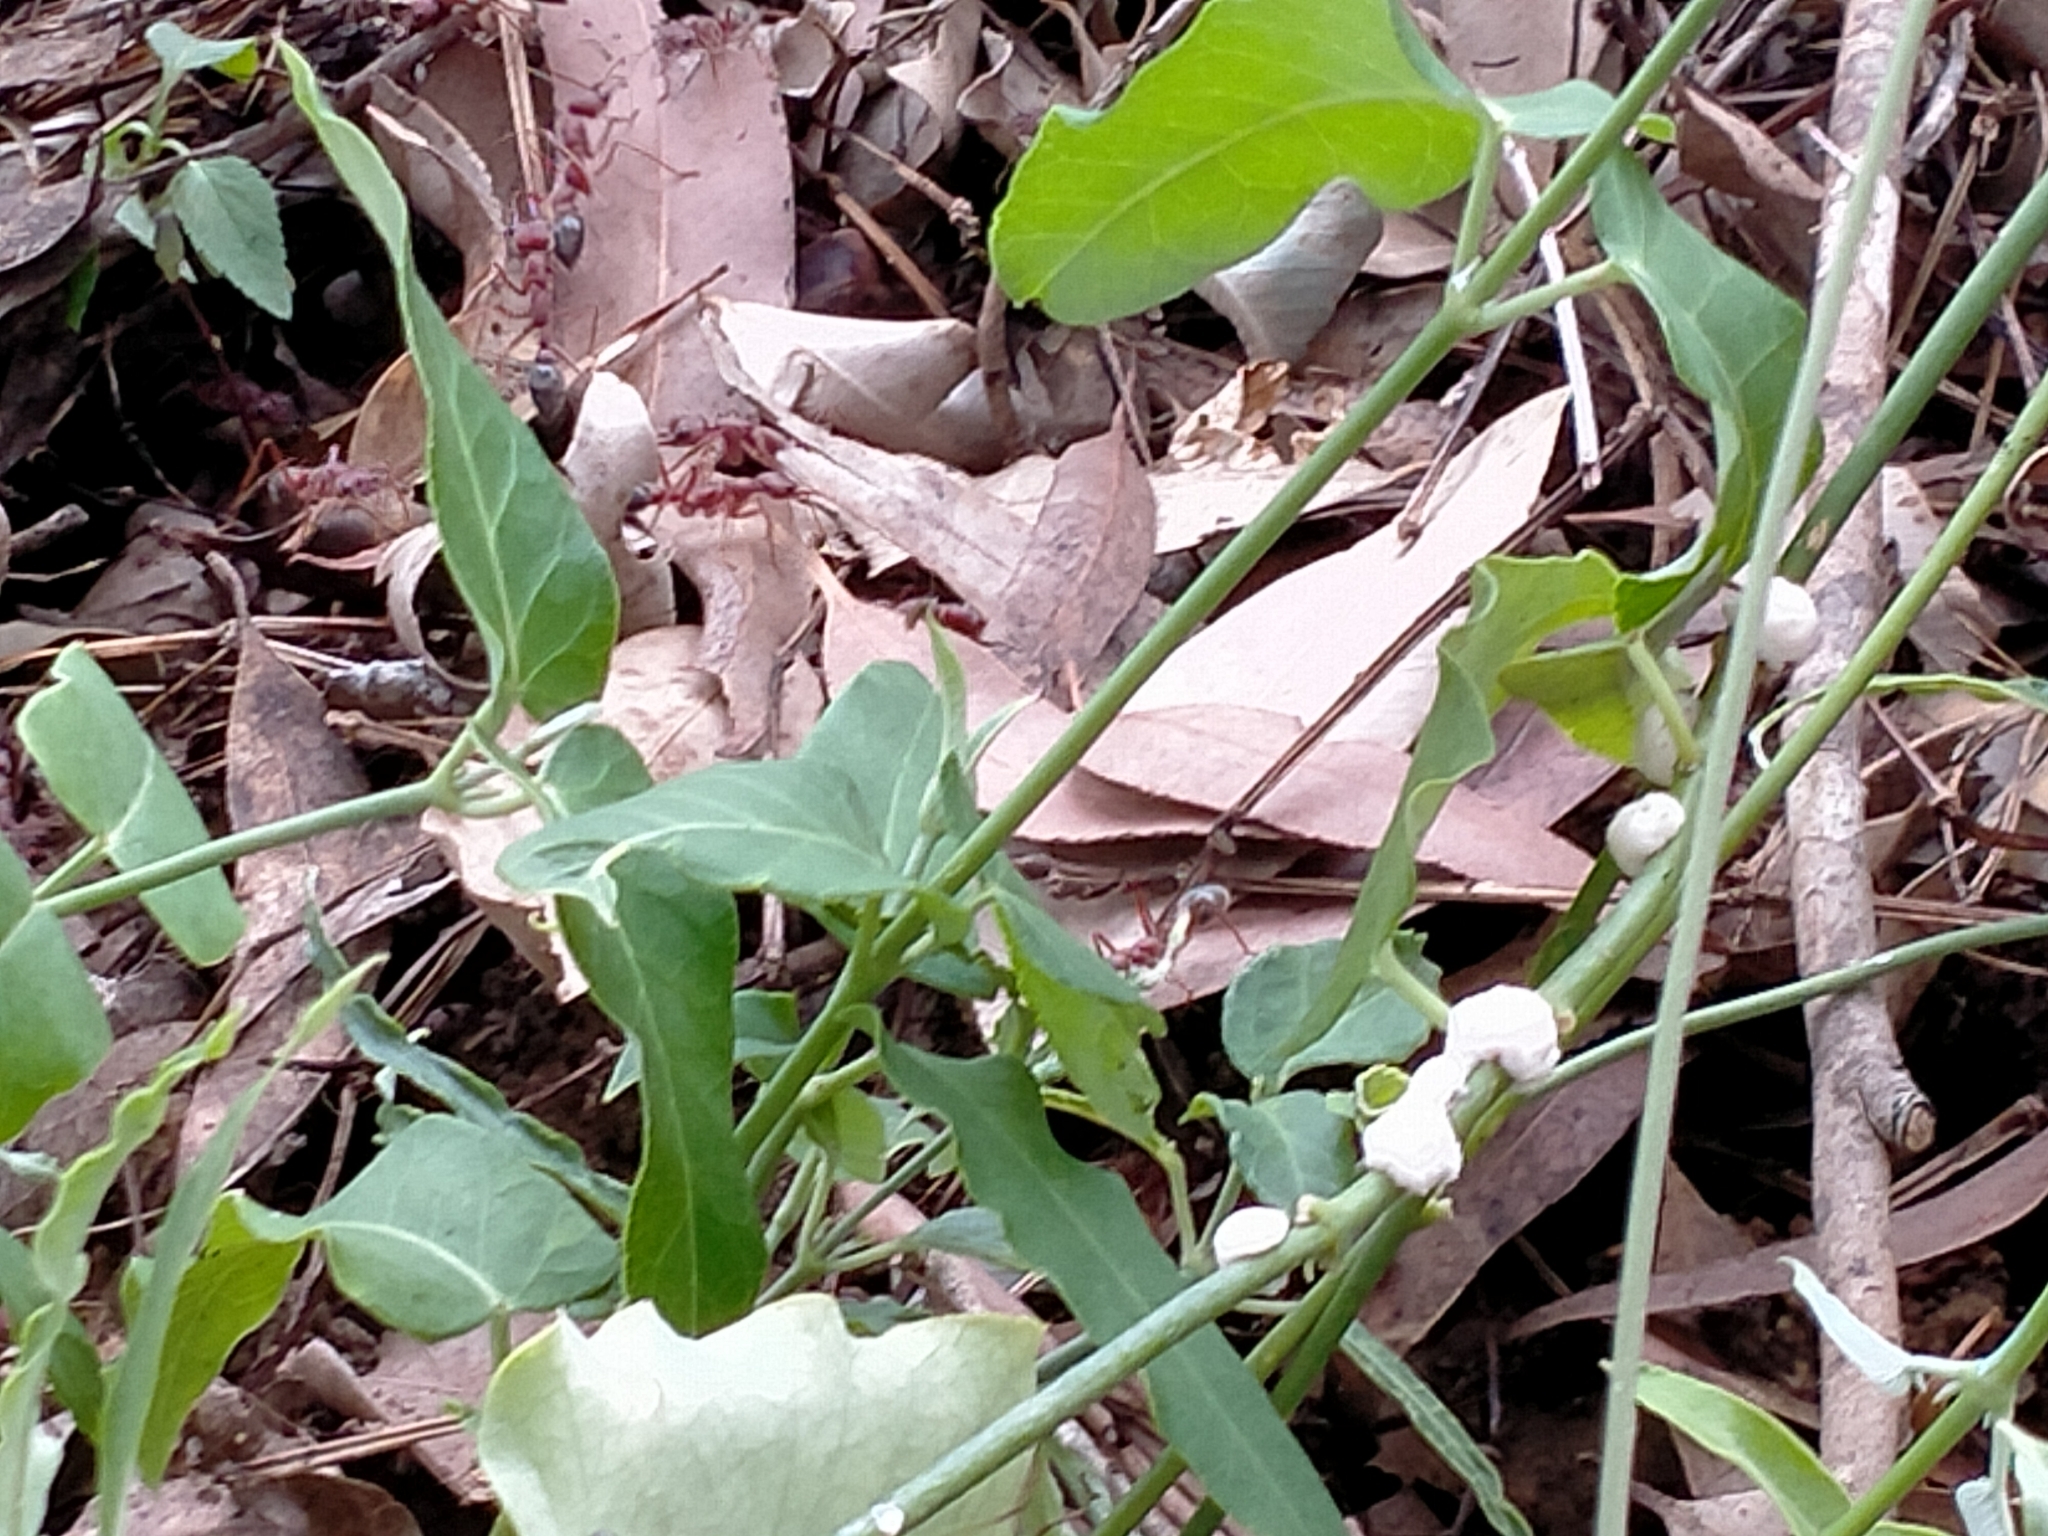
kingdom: Animalia
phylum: Arthropoda
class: Insecta
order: Hymenoptera
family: Formicidae
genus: Myrmecia
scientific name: Myrmecia brevinoda
